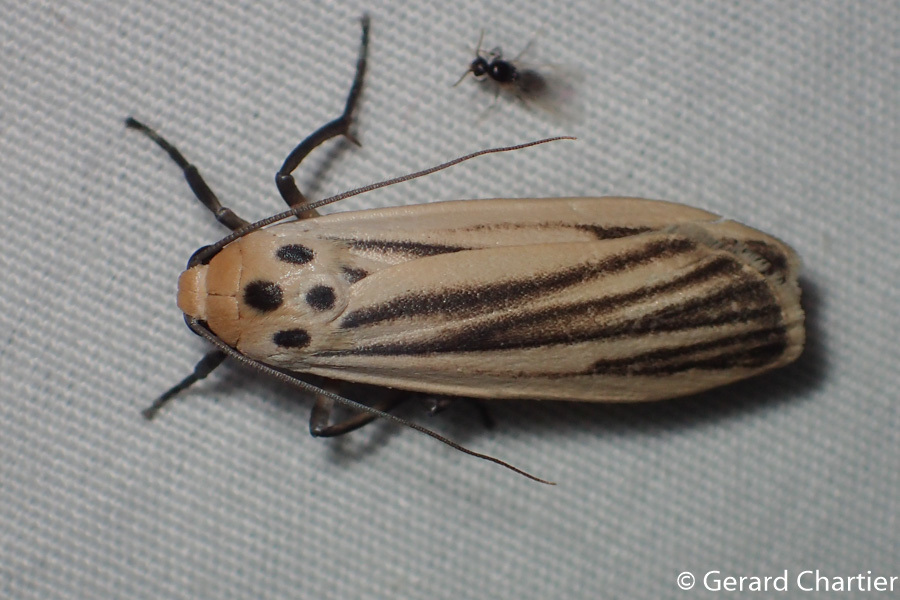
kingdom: Animalia
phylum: Arthropoda
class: Insecta
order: Lepidoptera
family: Erebidae
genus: Tigrioides
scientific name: Tigrioides leucanioides
